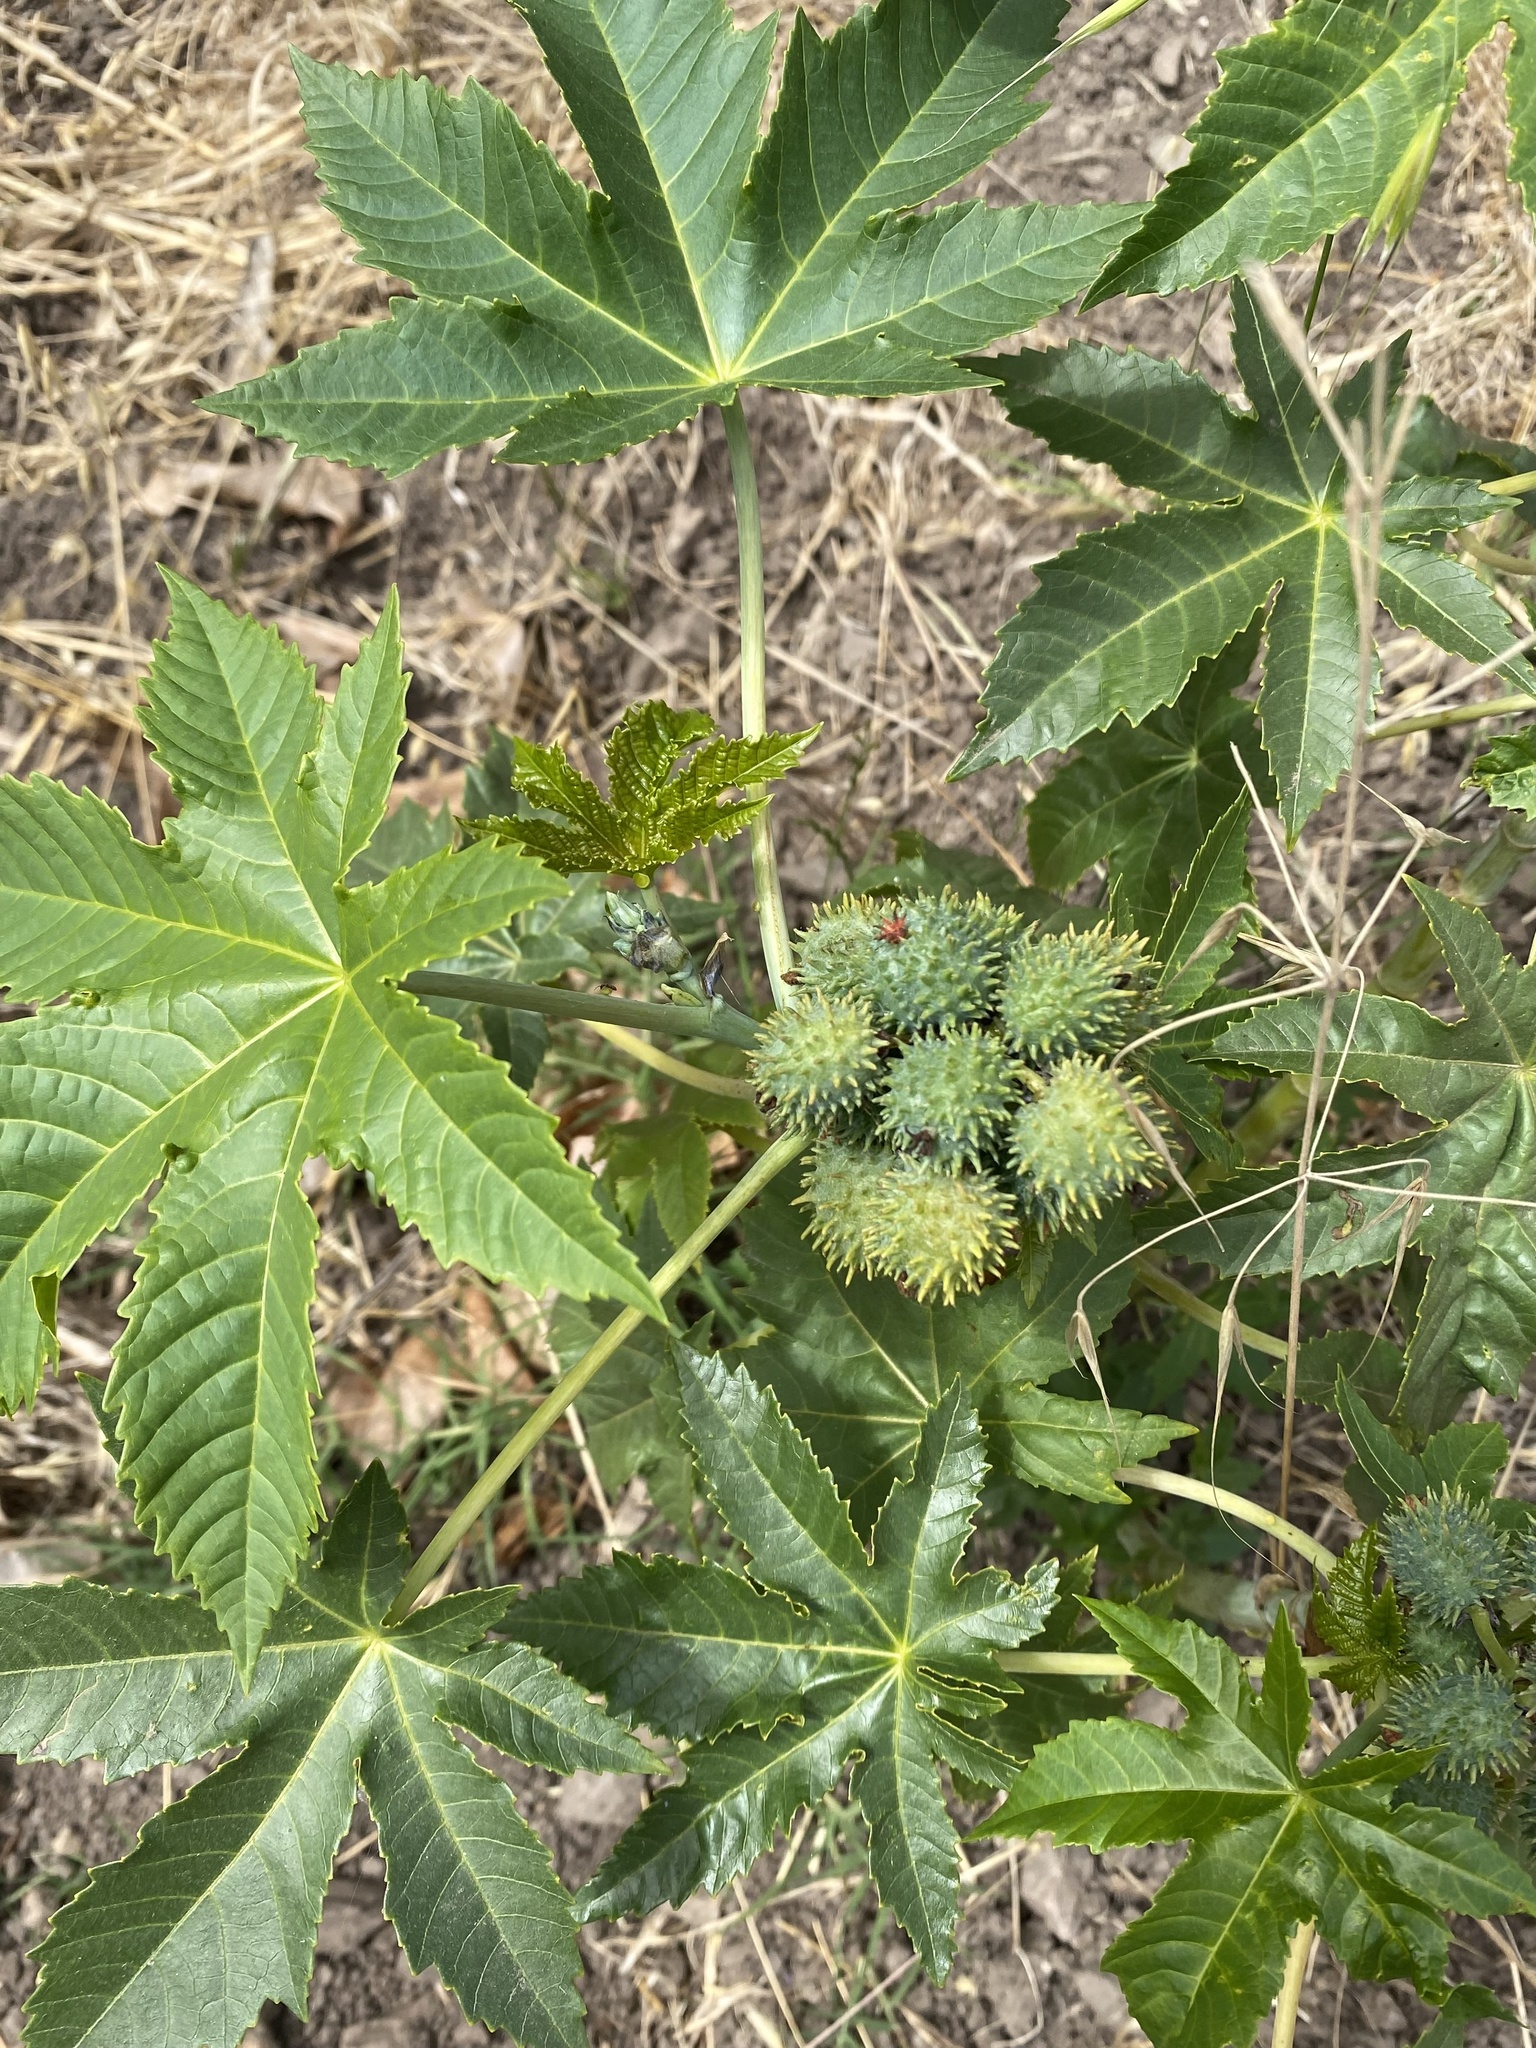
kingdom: Plantae
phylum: Tracheophyta
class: Magnoliopsida
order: Malpighiales
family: Euphorbiaceae
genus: Ricinus
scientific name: Ricinus communis
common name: Castor-oil-plant
